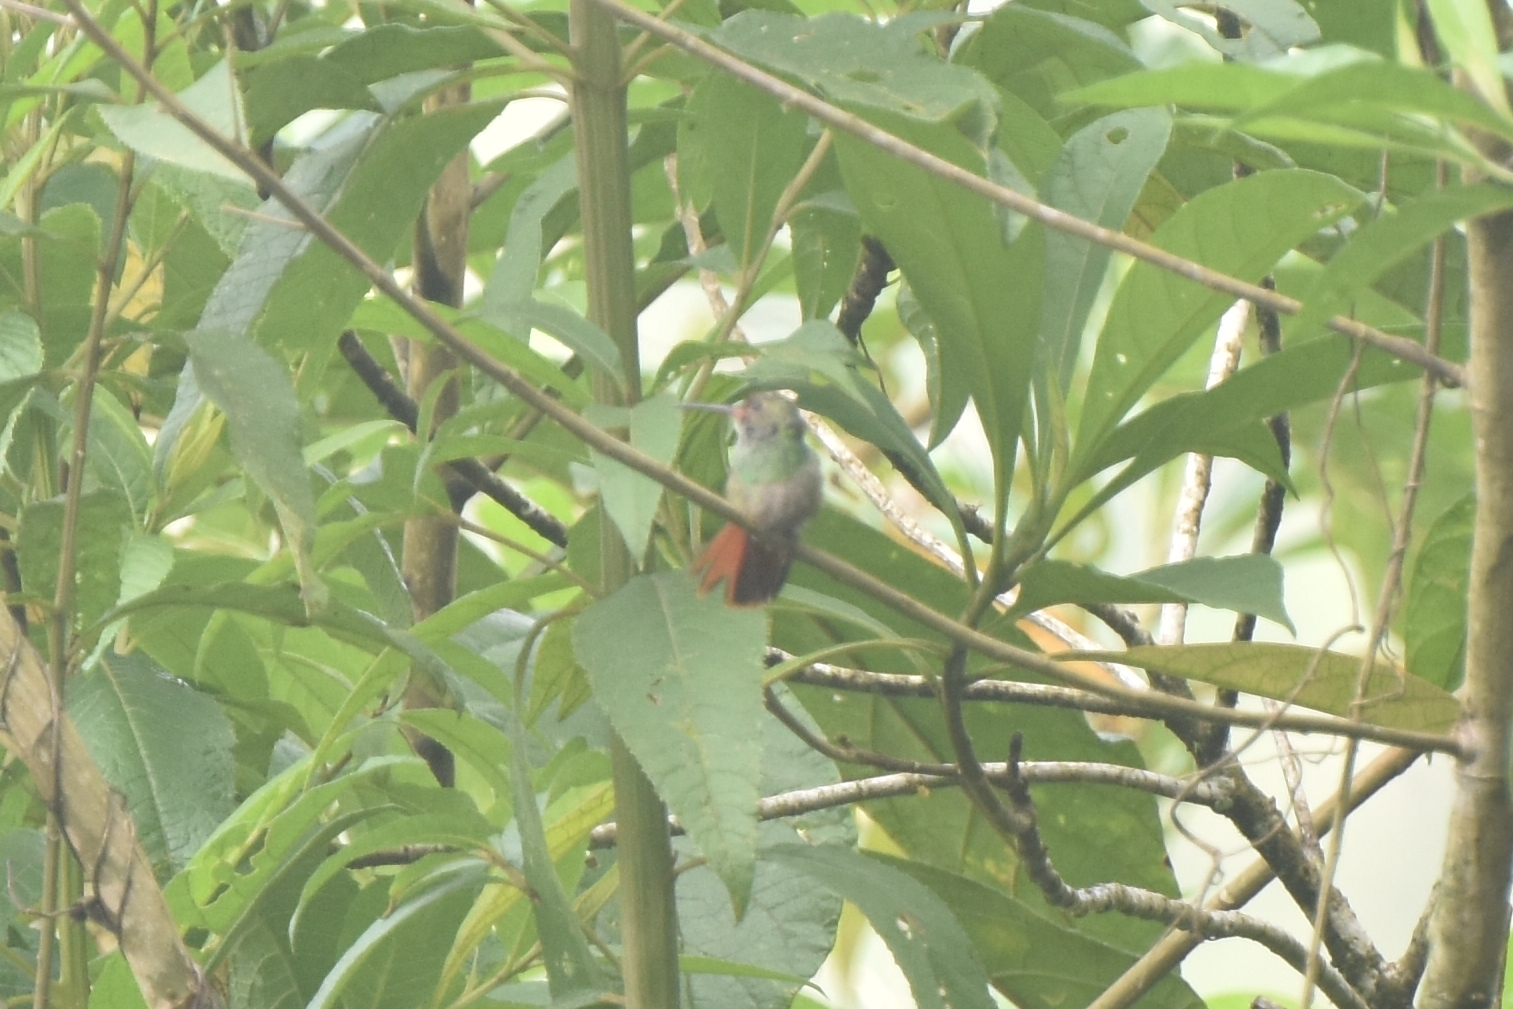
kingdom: Animalia
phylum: Chordata
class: Aves
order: Apodiformes
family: Trochilidae
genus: Amazilia
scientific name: Amazilia tzacatl
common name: Rufous-tailed hummingbird
